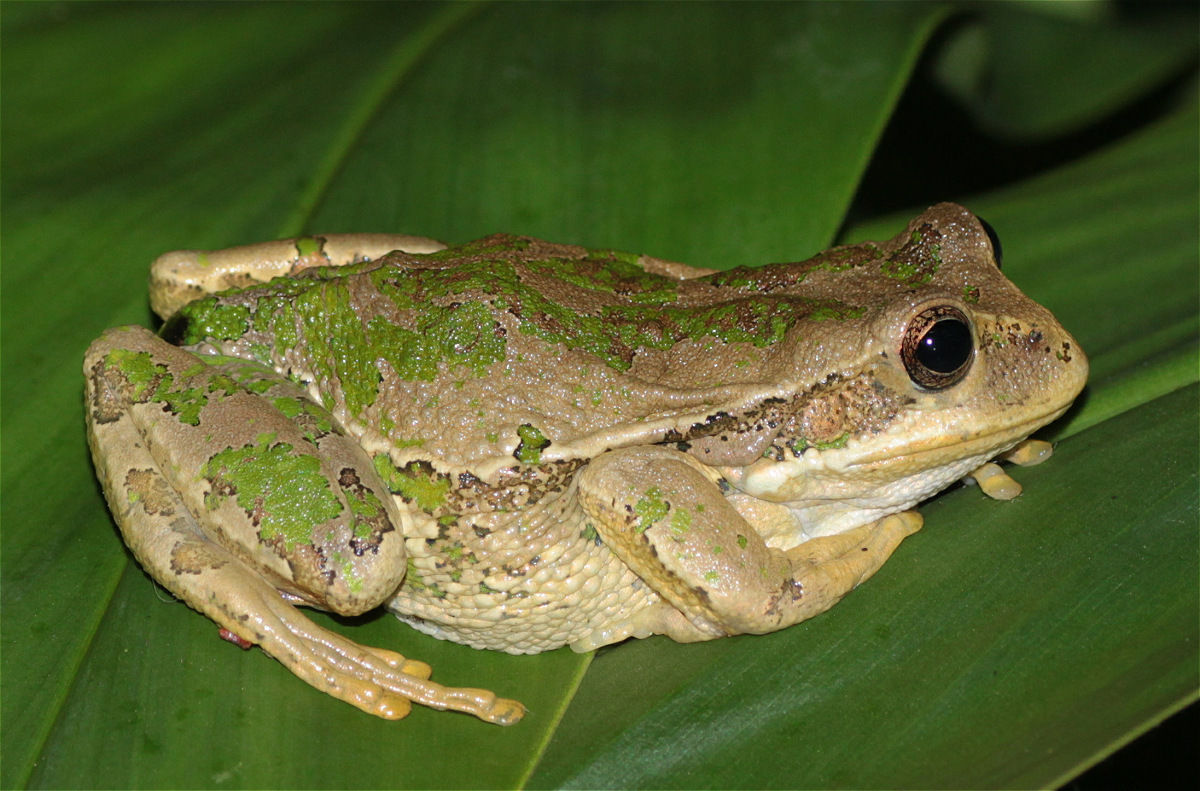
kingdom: Animalia
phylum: Chordata
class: Amphibia
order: Anura
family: Hemiphractidae
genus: Gastrotheca
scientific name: Gastrotheca cuencana
